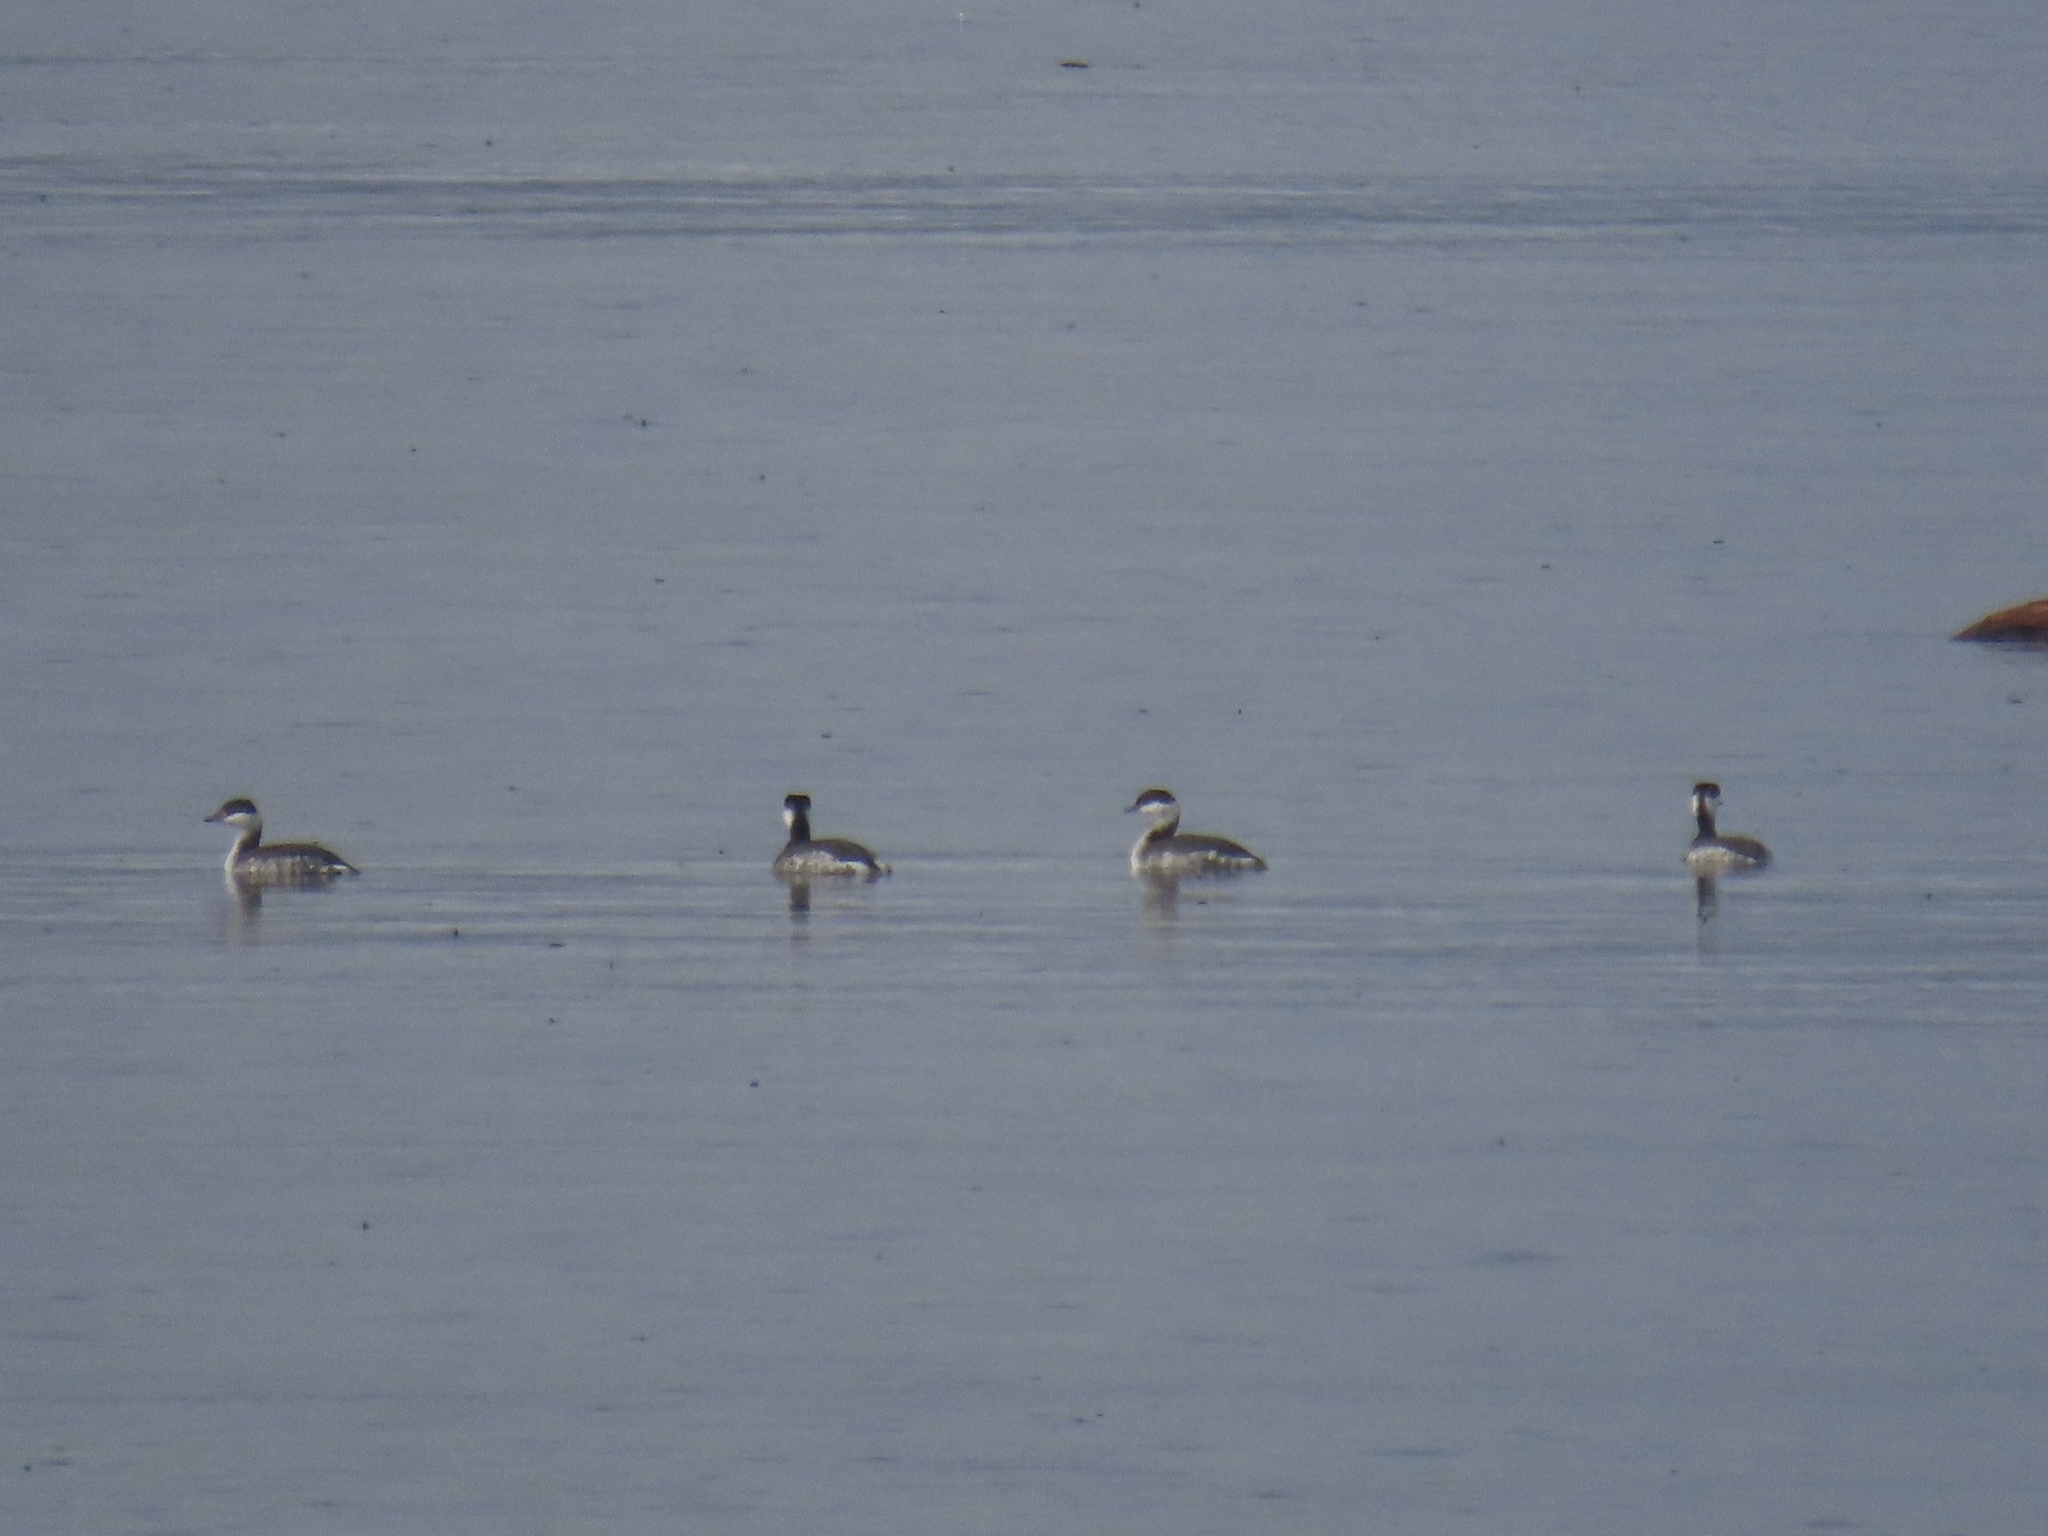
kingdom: Animalia
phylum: Chordata
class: Aves
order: Podicipediformes
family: Podicipedidae
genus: Podiceps
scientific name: Podiceps auritus
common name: Horned grebe
